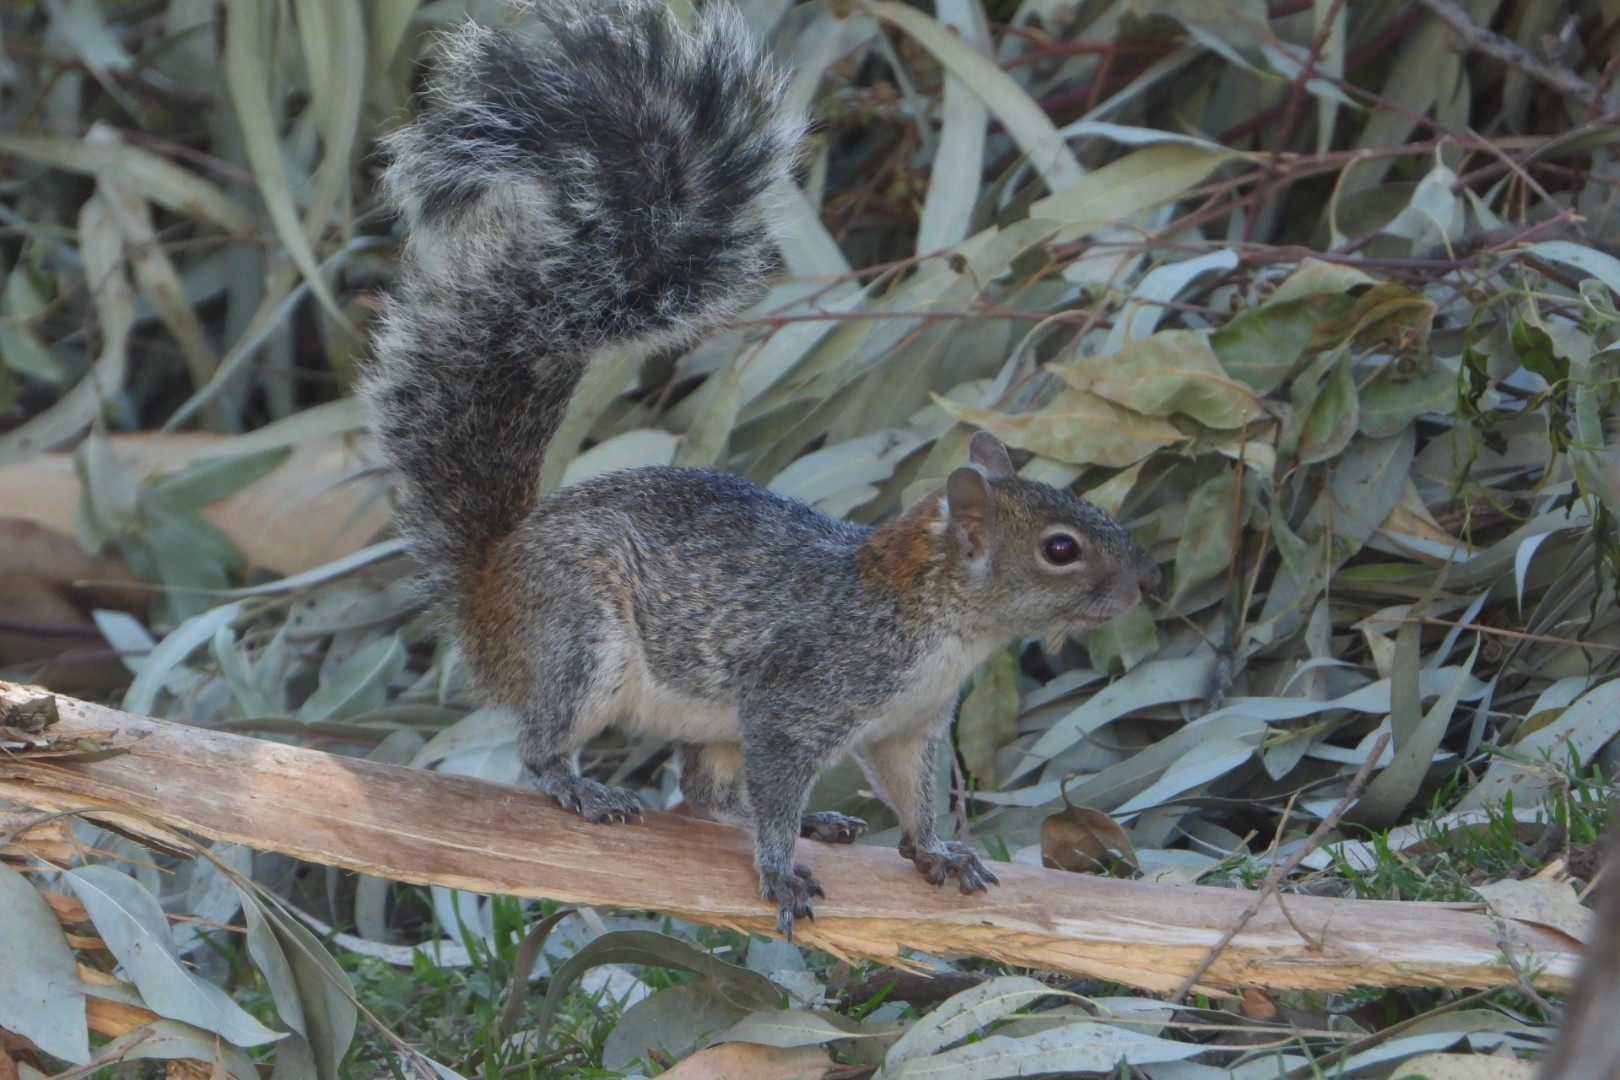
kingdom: Animalia
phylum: Chordata
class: Mammalia
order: Rodentia
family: Sciuridae
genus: Sciurus
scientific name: Sciurus aureogaster
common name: Red-bellied squirrel
